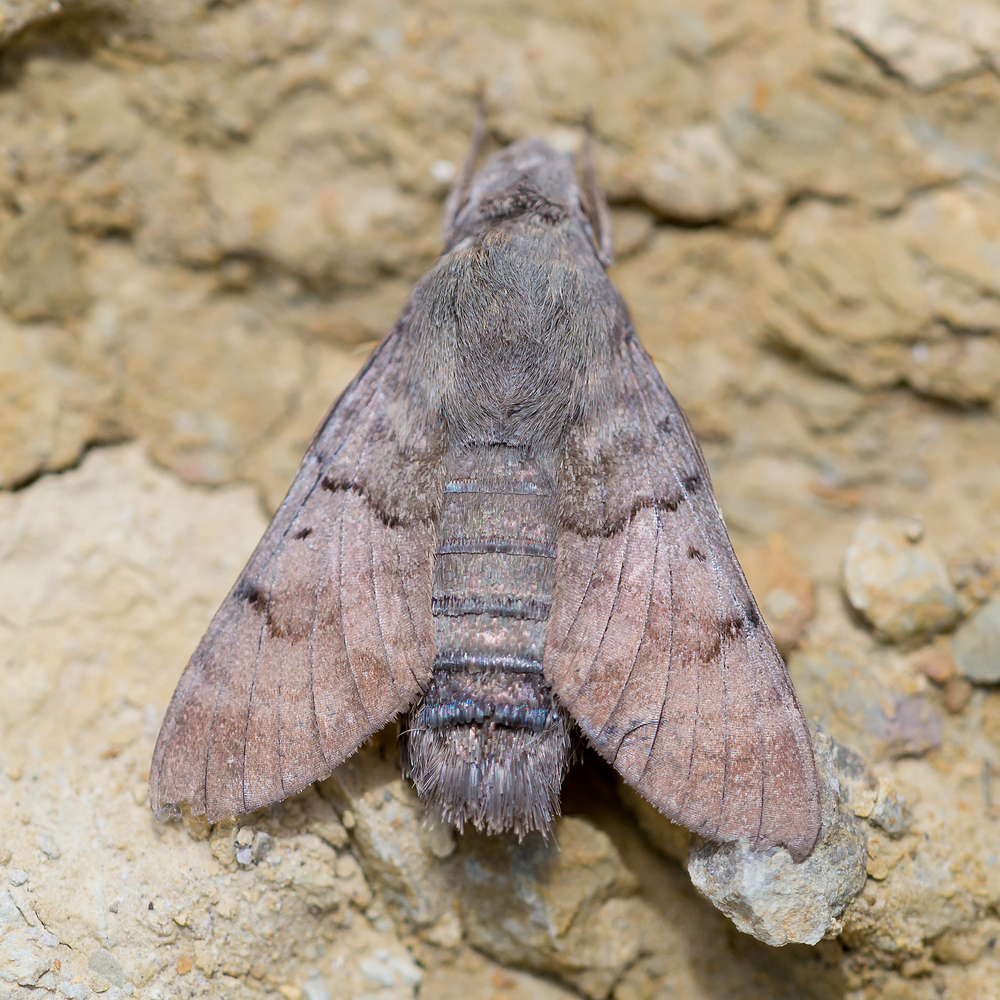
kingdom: Animalia
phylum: Arthropoda
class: Insecta
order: Lepidoptera
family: Sphingidae
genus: Macroglossum
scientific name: Macroglossum stellatarum
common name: Humming-bird hawk-moth
